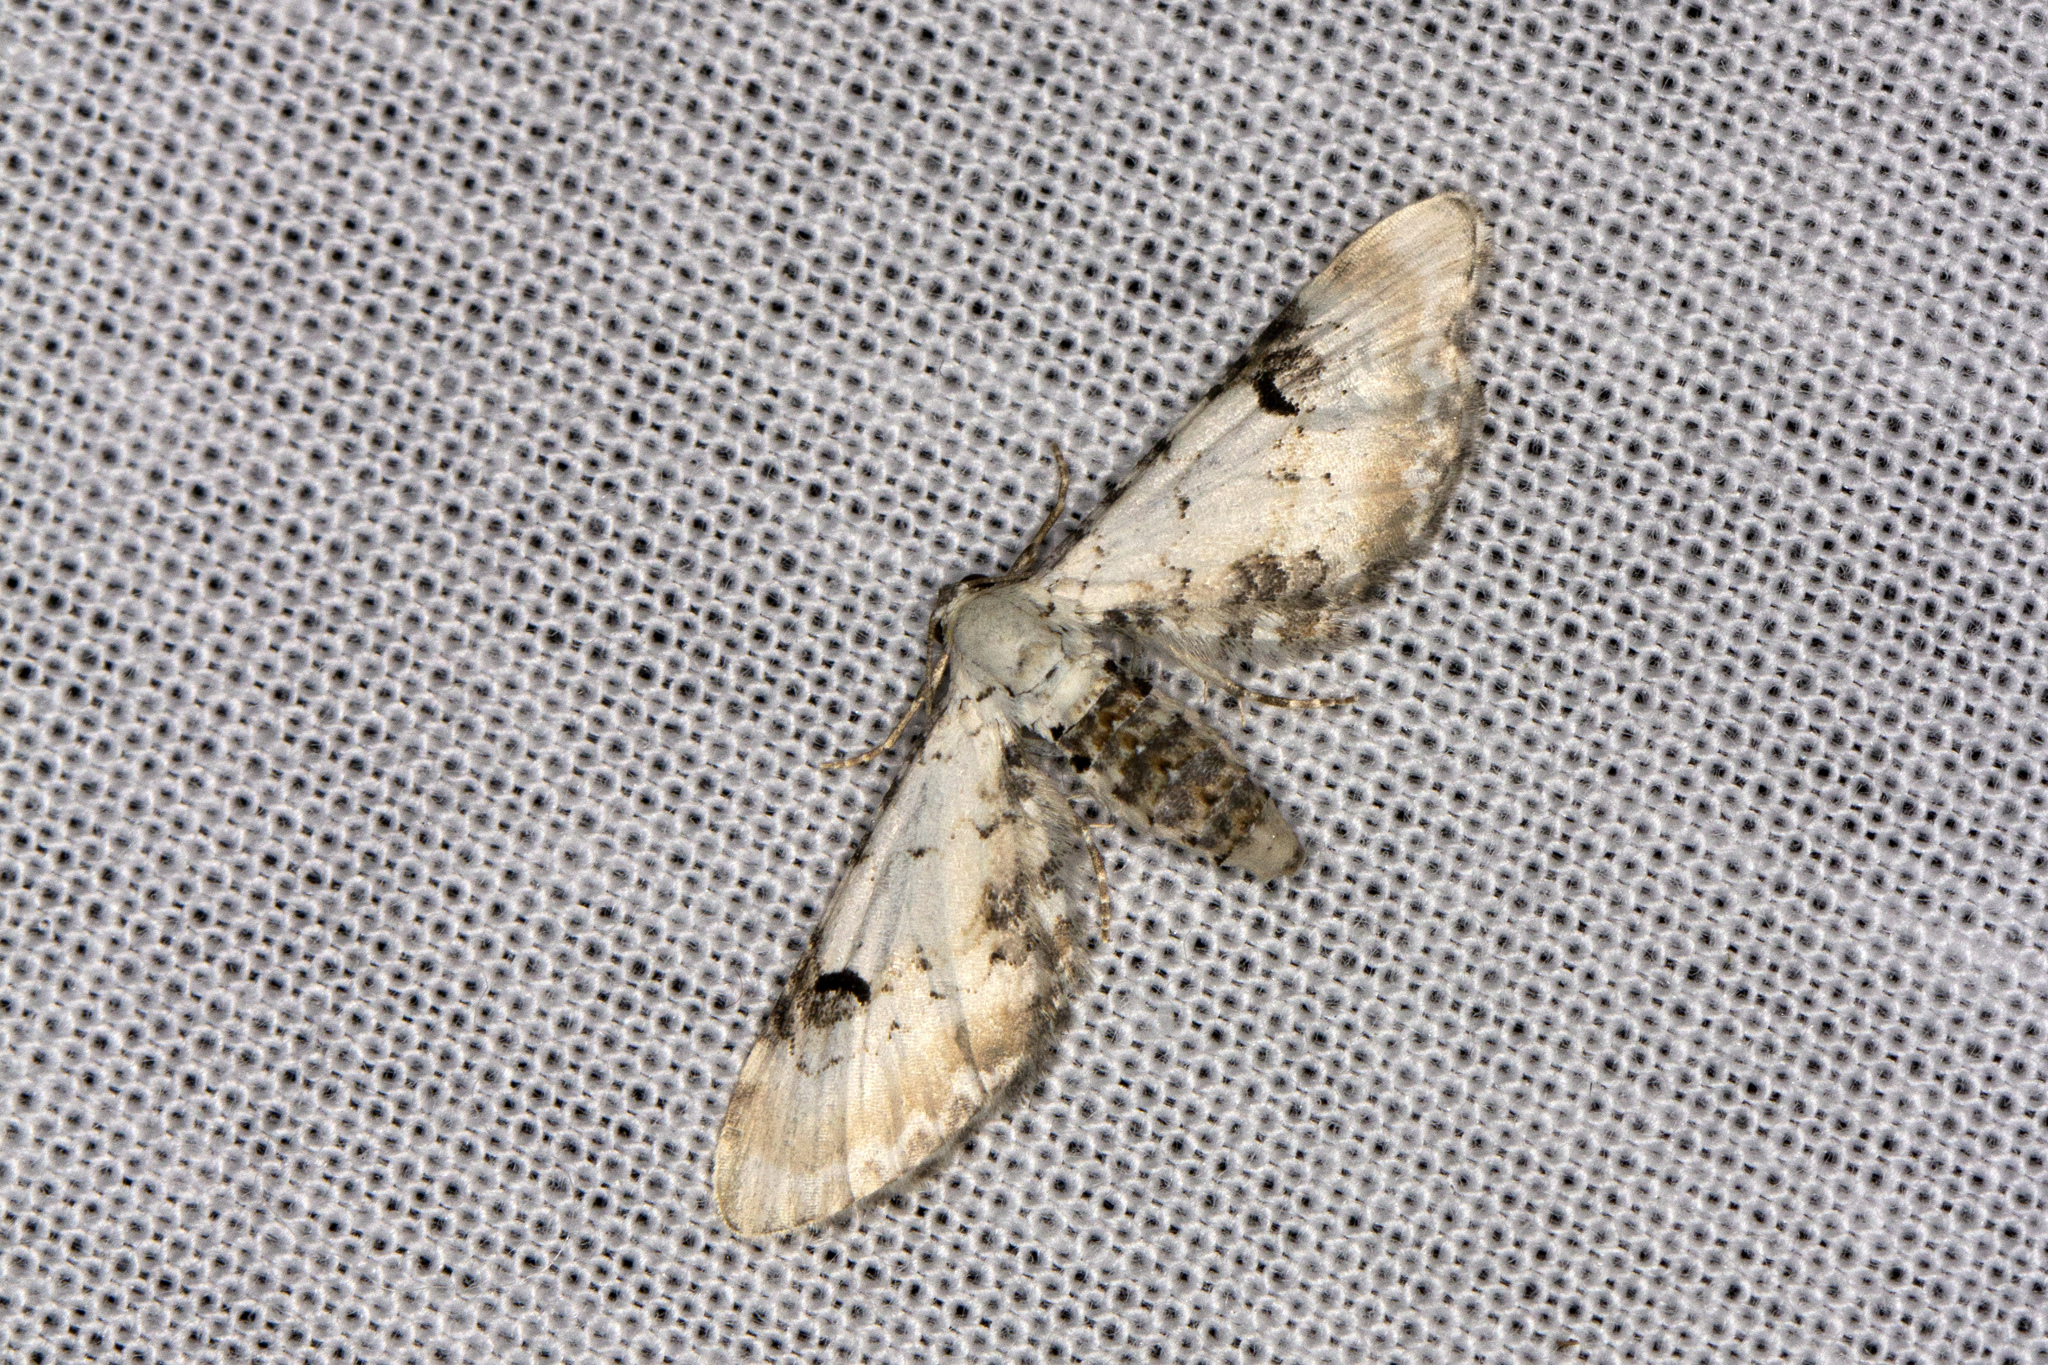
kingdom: Animalia
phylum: Arthropoda
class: Insecta
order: Lepidoptera
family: Geometridae
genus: Eupithecia
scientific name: Eupithecia centaureata
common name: Lime-speck pug
